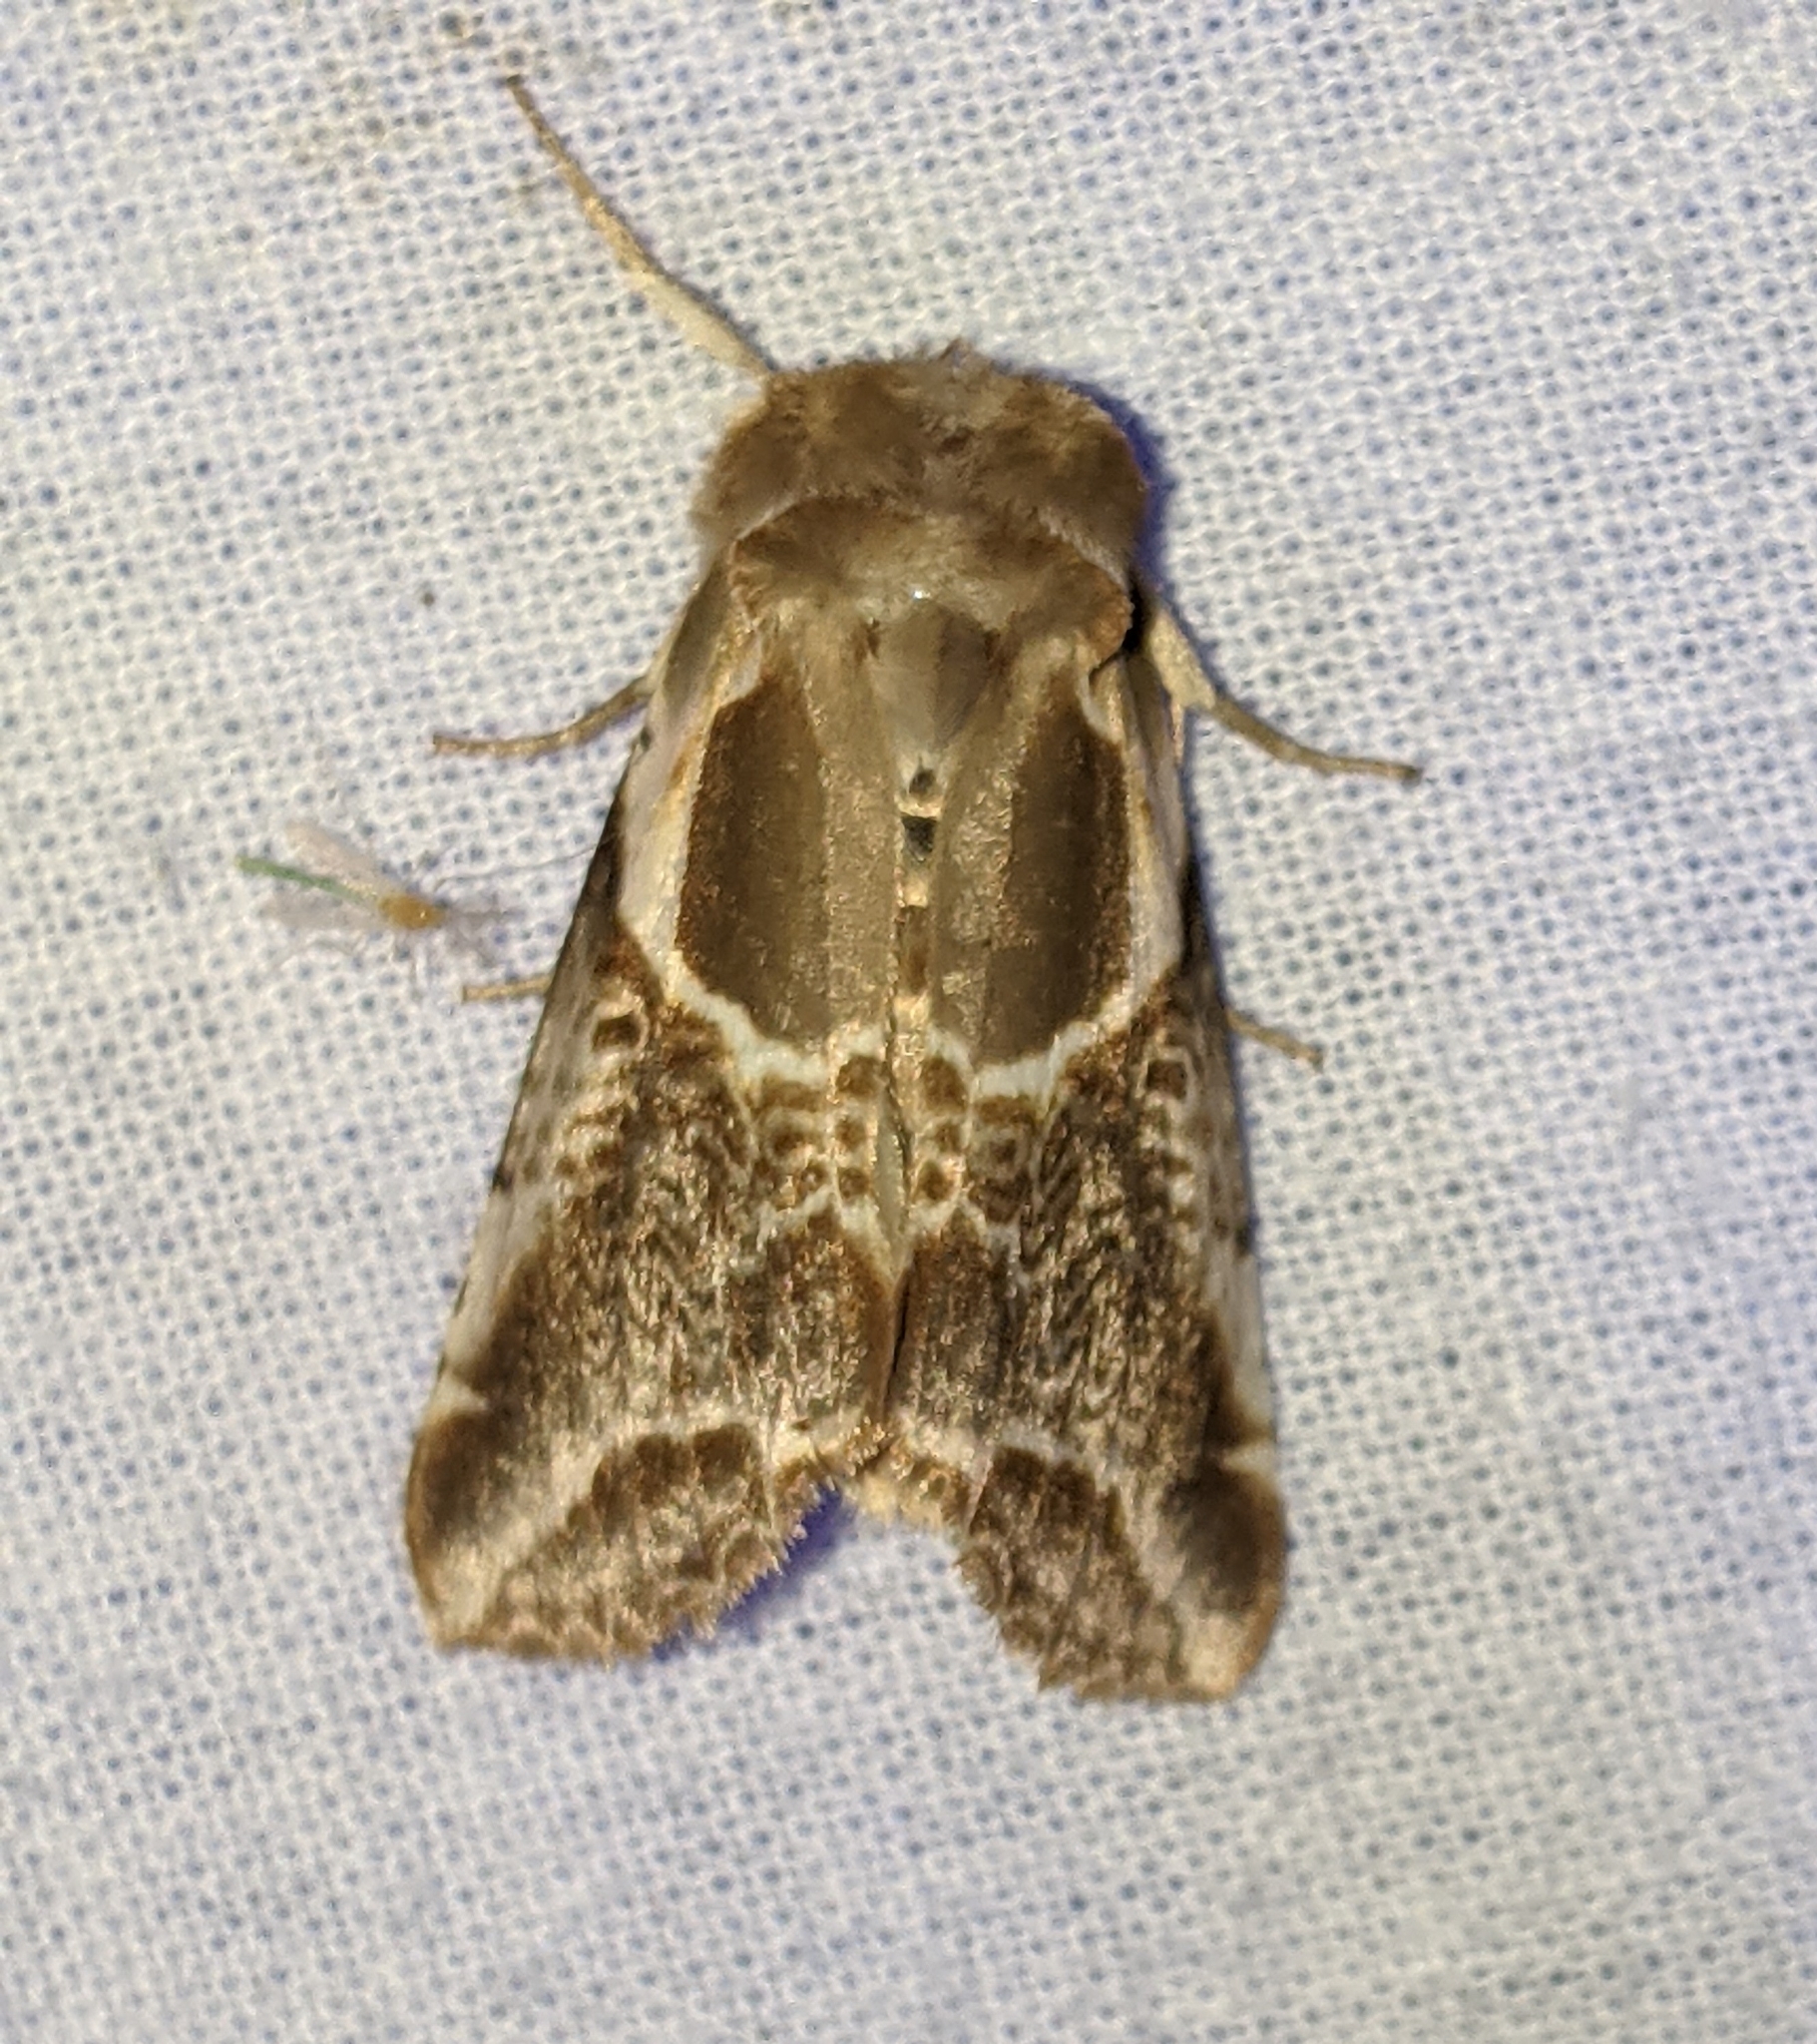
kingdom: Animalia
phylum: Arthropoda
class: Insecta
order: Lepidoptera
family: Drepanidae
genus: Habrosyne
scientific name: Habrosyne scripta
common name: Lettered habrosyne moth
